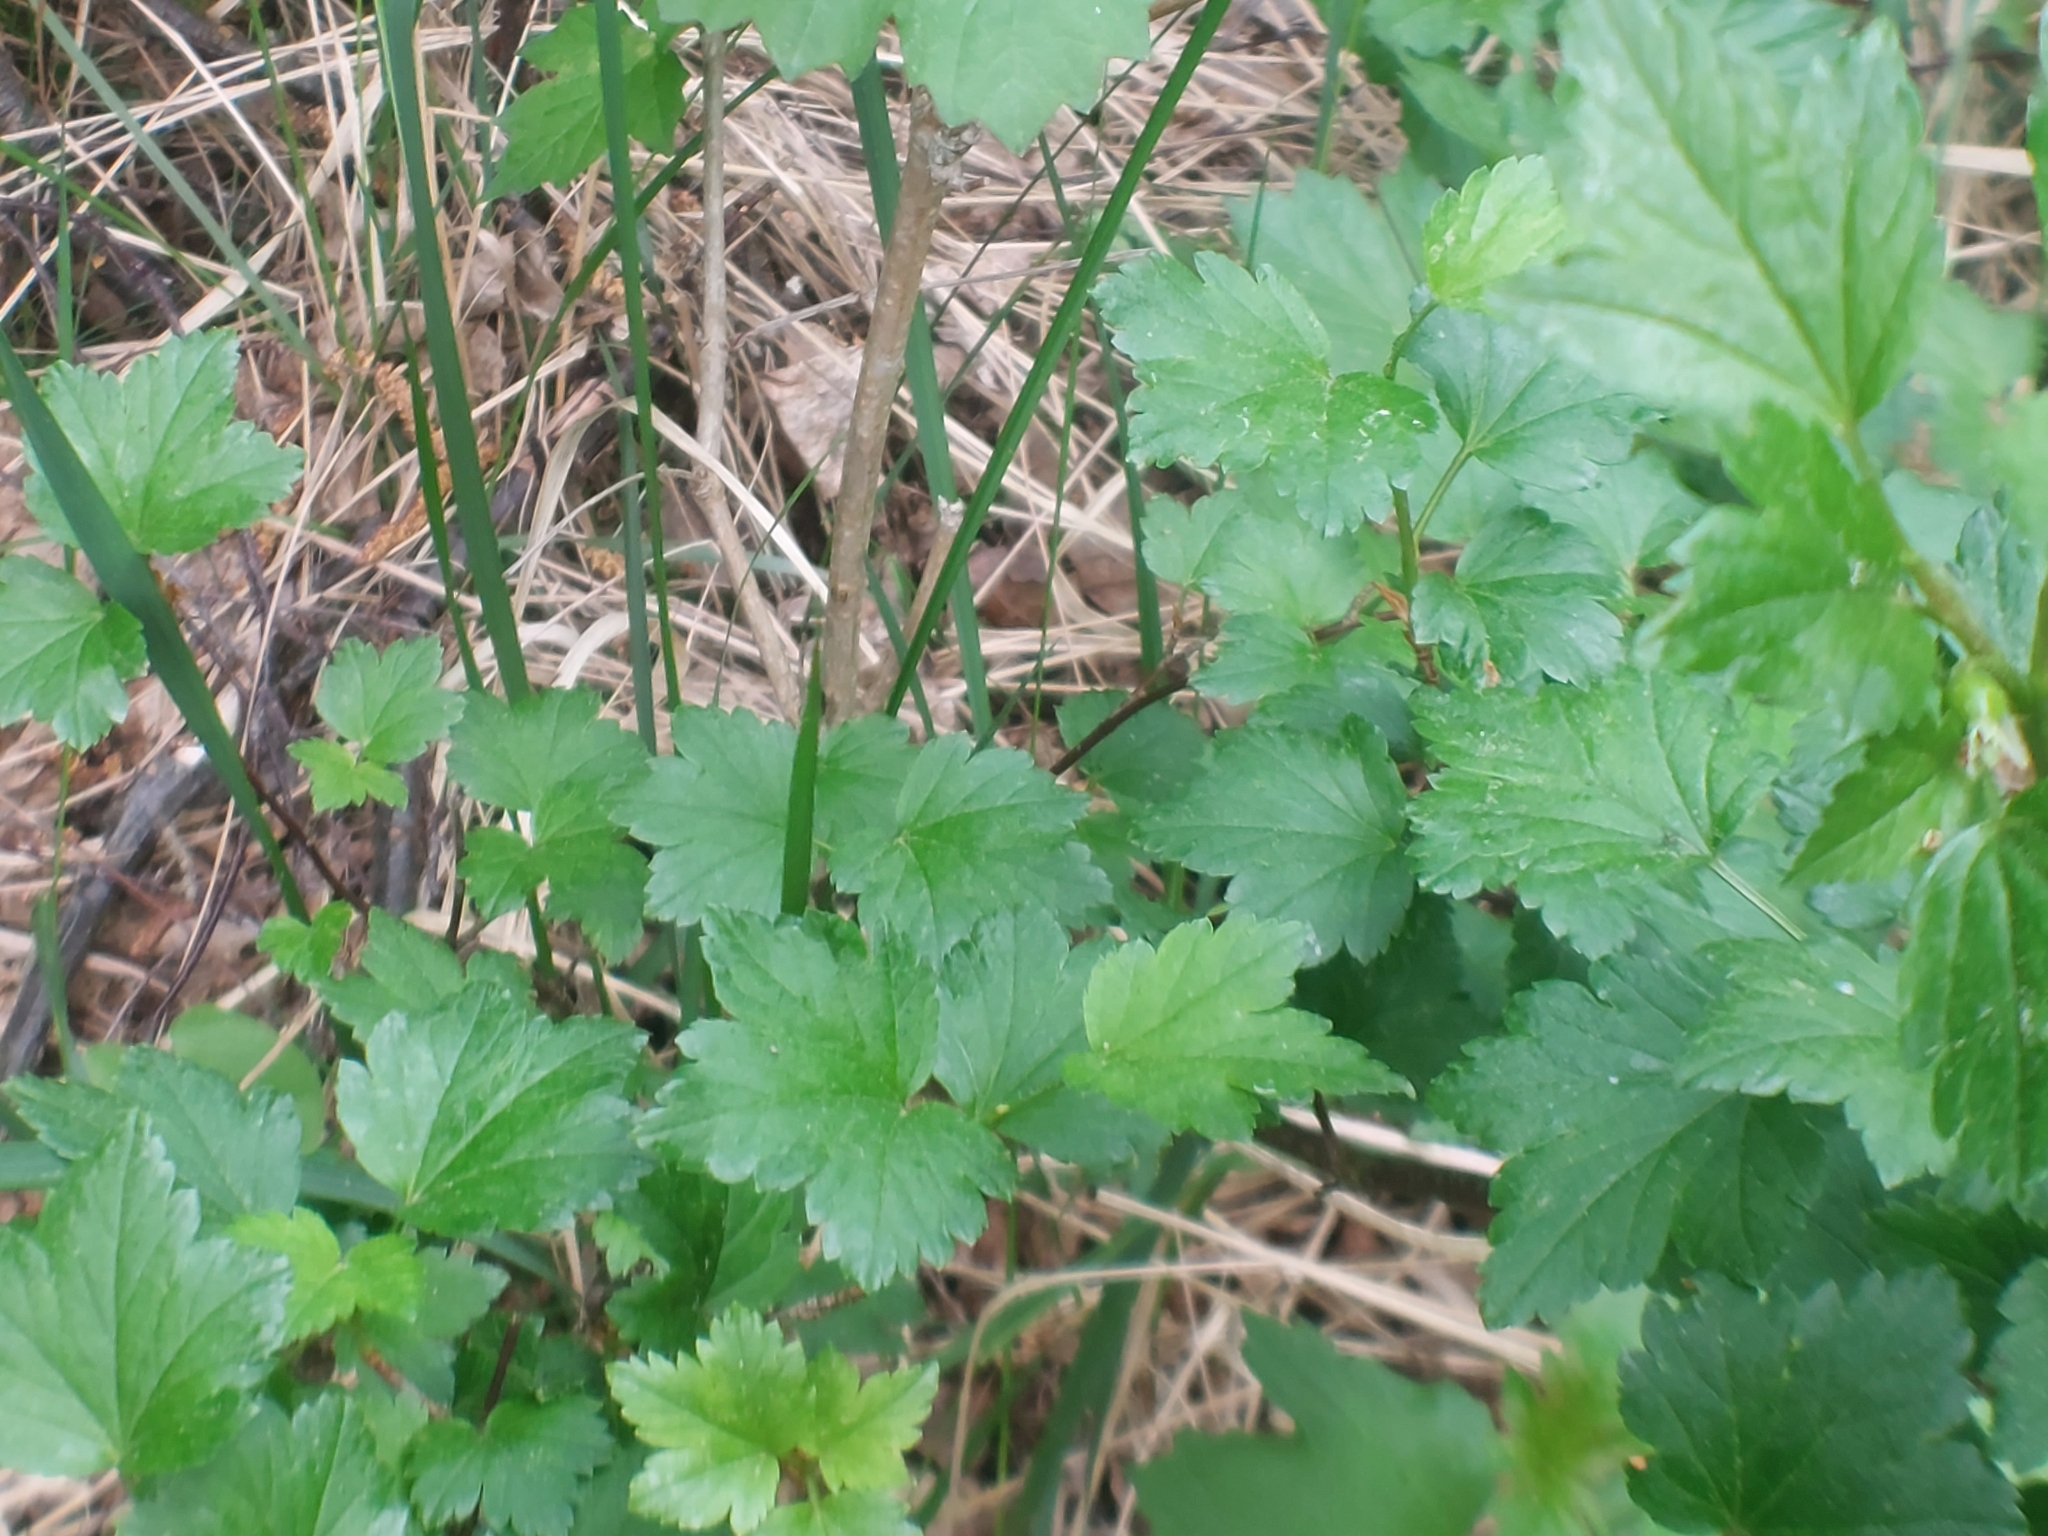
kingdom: Plantae
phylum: Tracheophyta
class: Magnoliopsida
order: Saxifragales
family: Grossulariaceae
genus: Ribes
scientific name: Ribes alpinum
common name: Alpine currant
